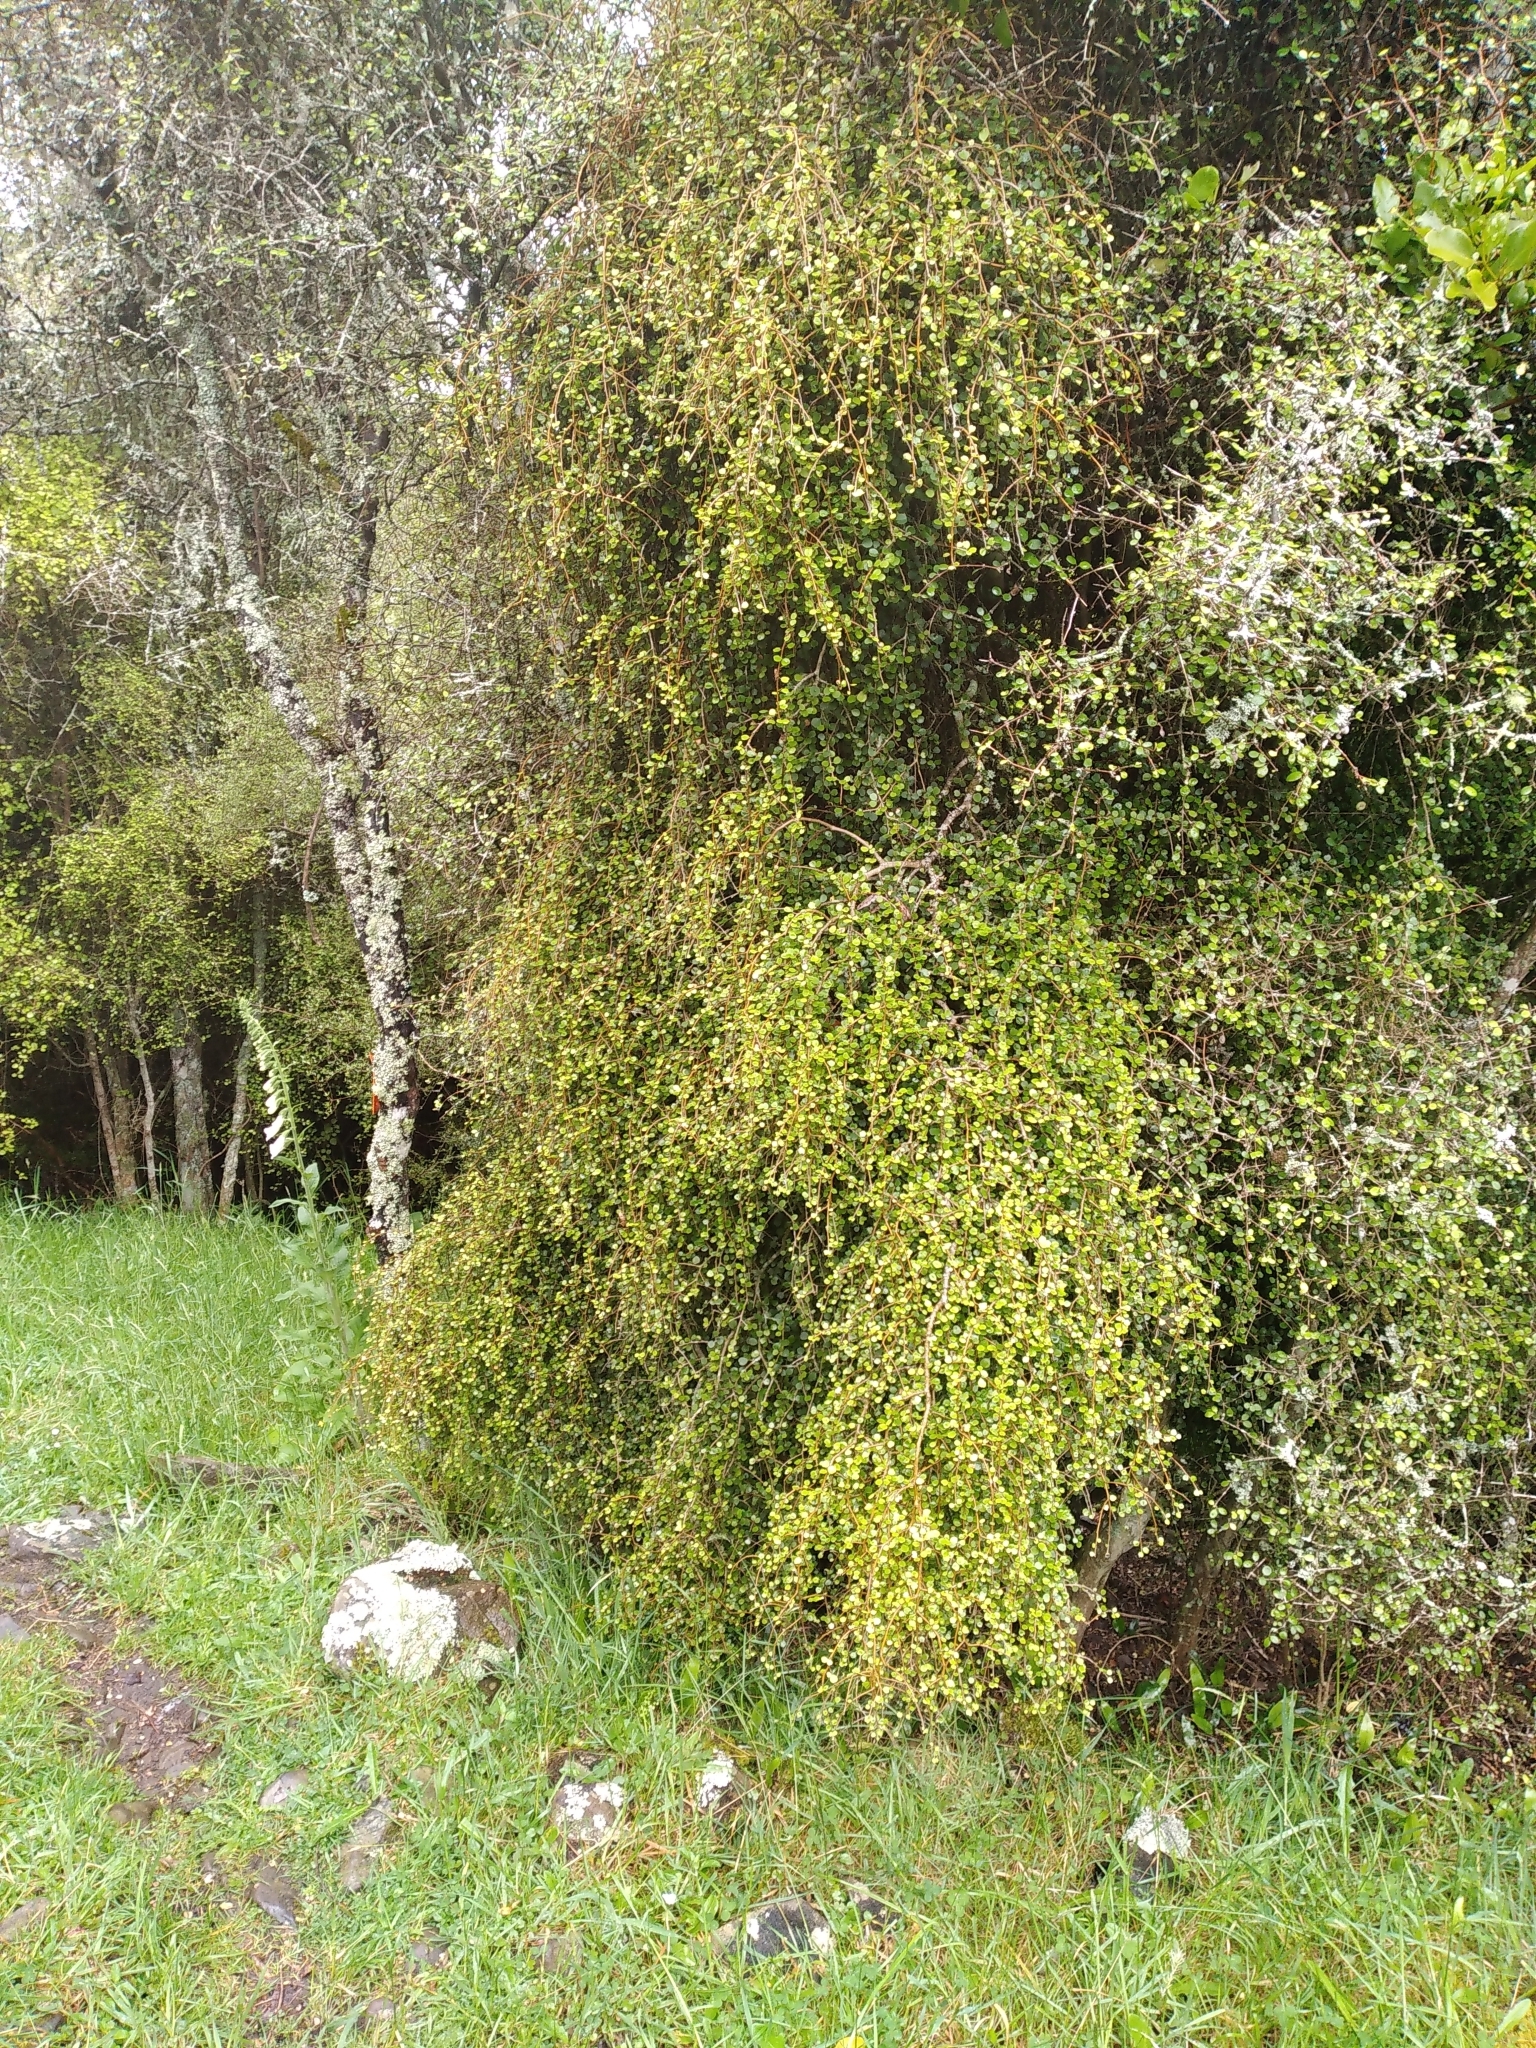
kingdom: Plantae
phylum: Tracheophyta
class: Magnoliopsida
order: Ericales
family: Primulaceae
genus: Myrsine
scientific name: Myrsine divaricata
